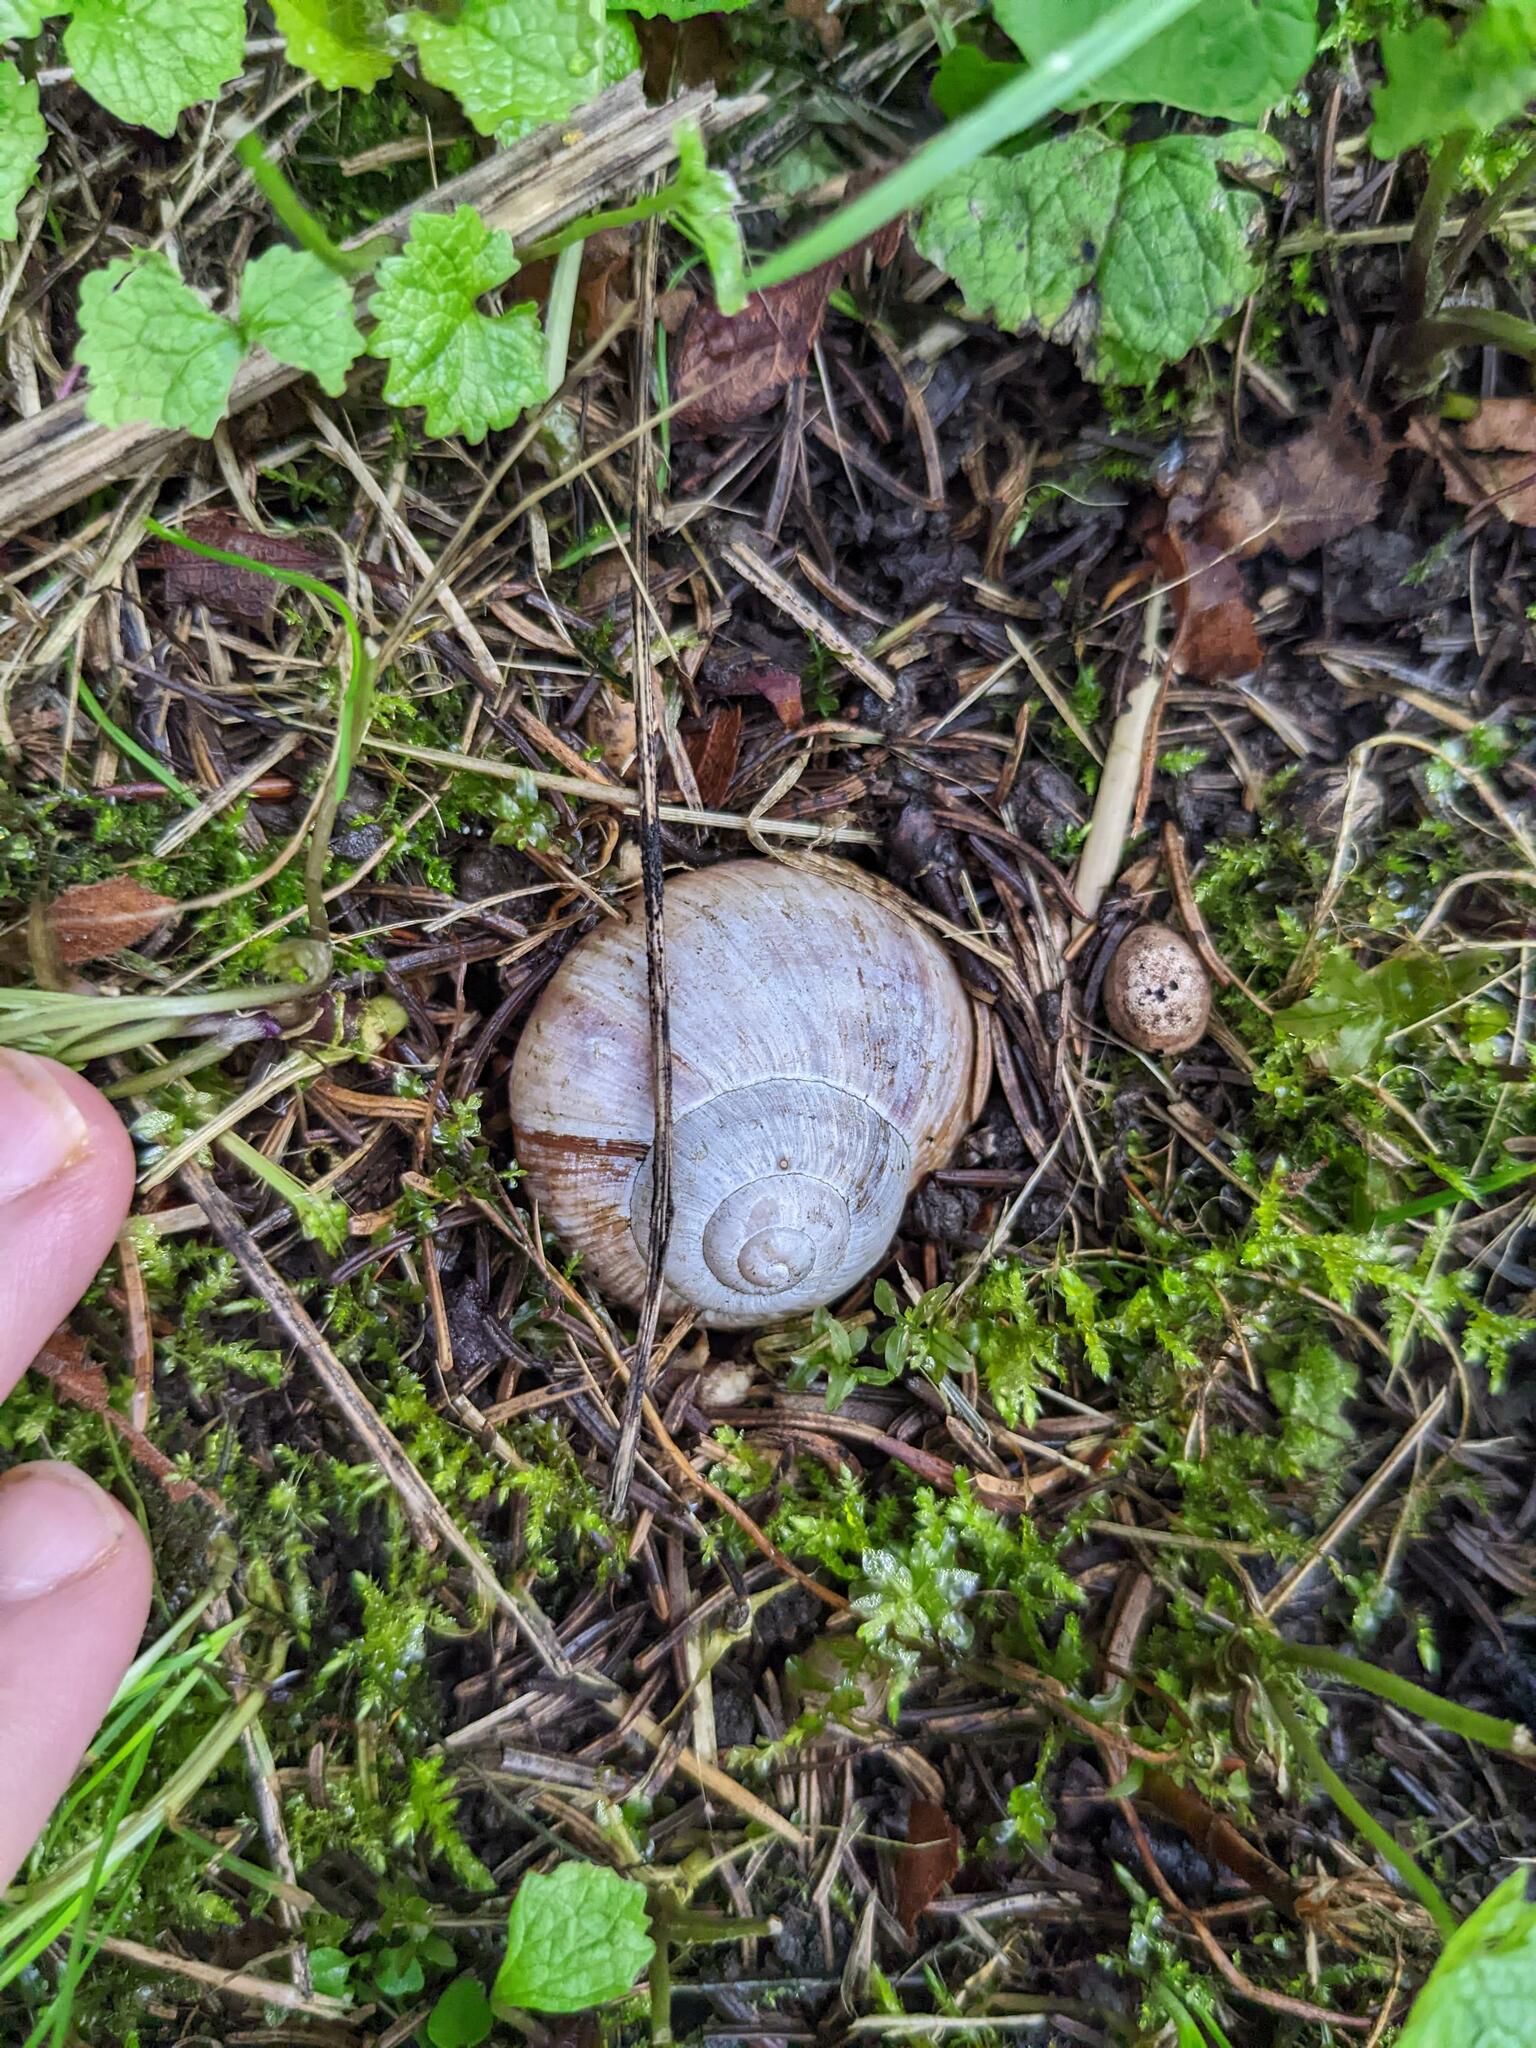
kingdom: Animalia
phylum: Mollusca
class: Gastropoda
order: Stylommatophora
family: Helicidae
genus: Helix
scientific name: Helix pomatia
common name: Roman snail
